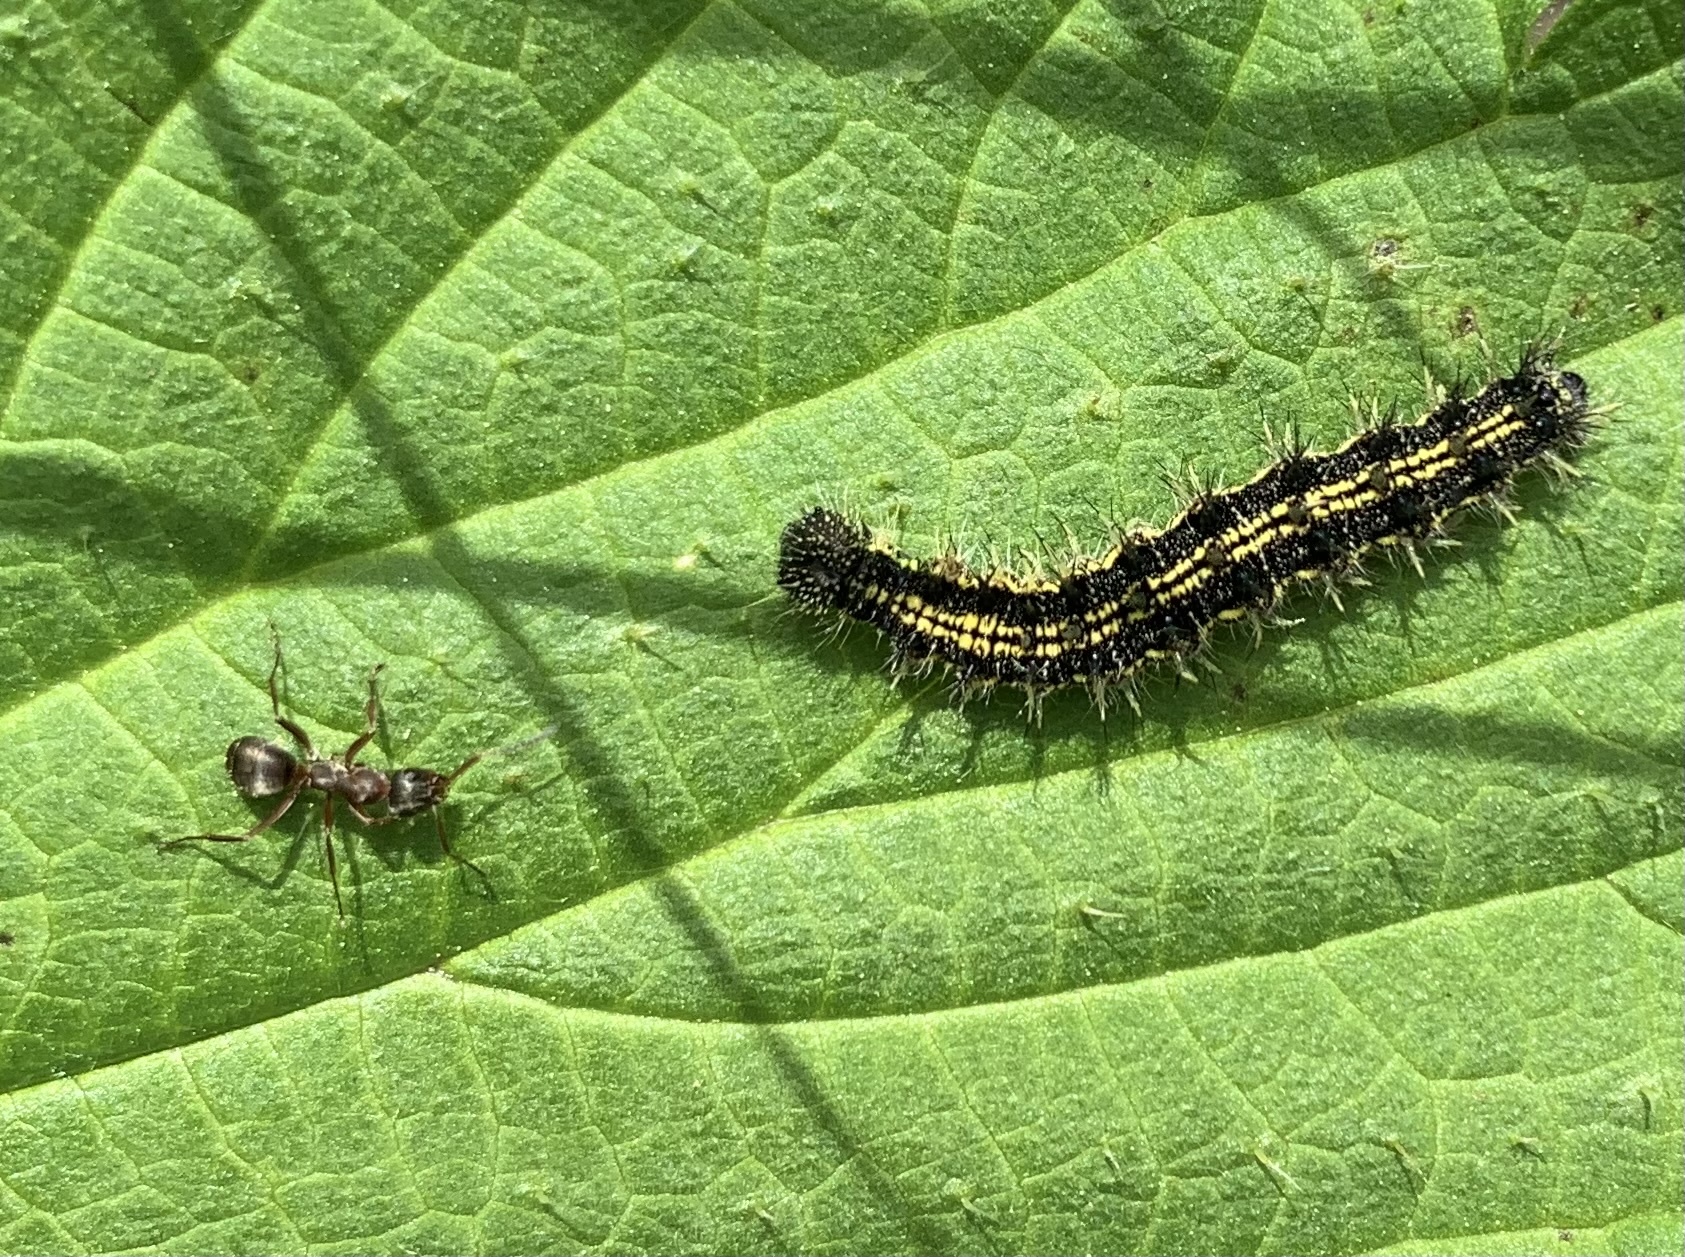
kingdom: Animalia
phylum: Arthropoda
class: Insecta
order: Lepidoptera
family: Nymphalidae
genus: Aglais
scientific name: Aglais urticae
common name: Small tortoiseshell
